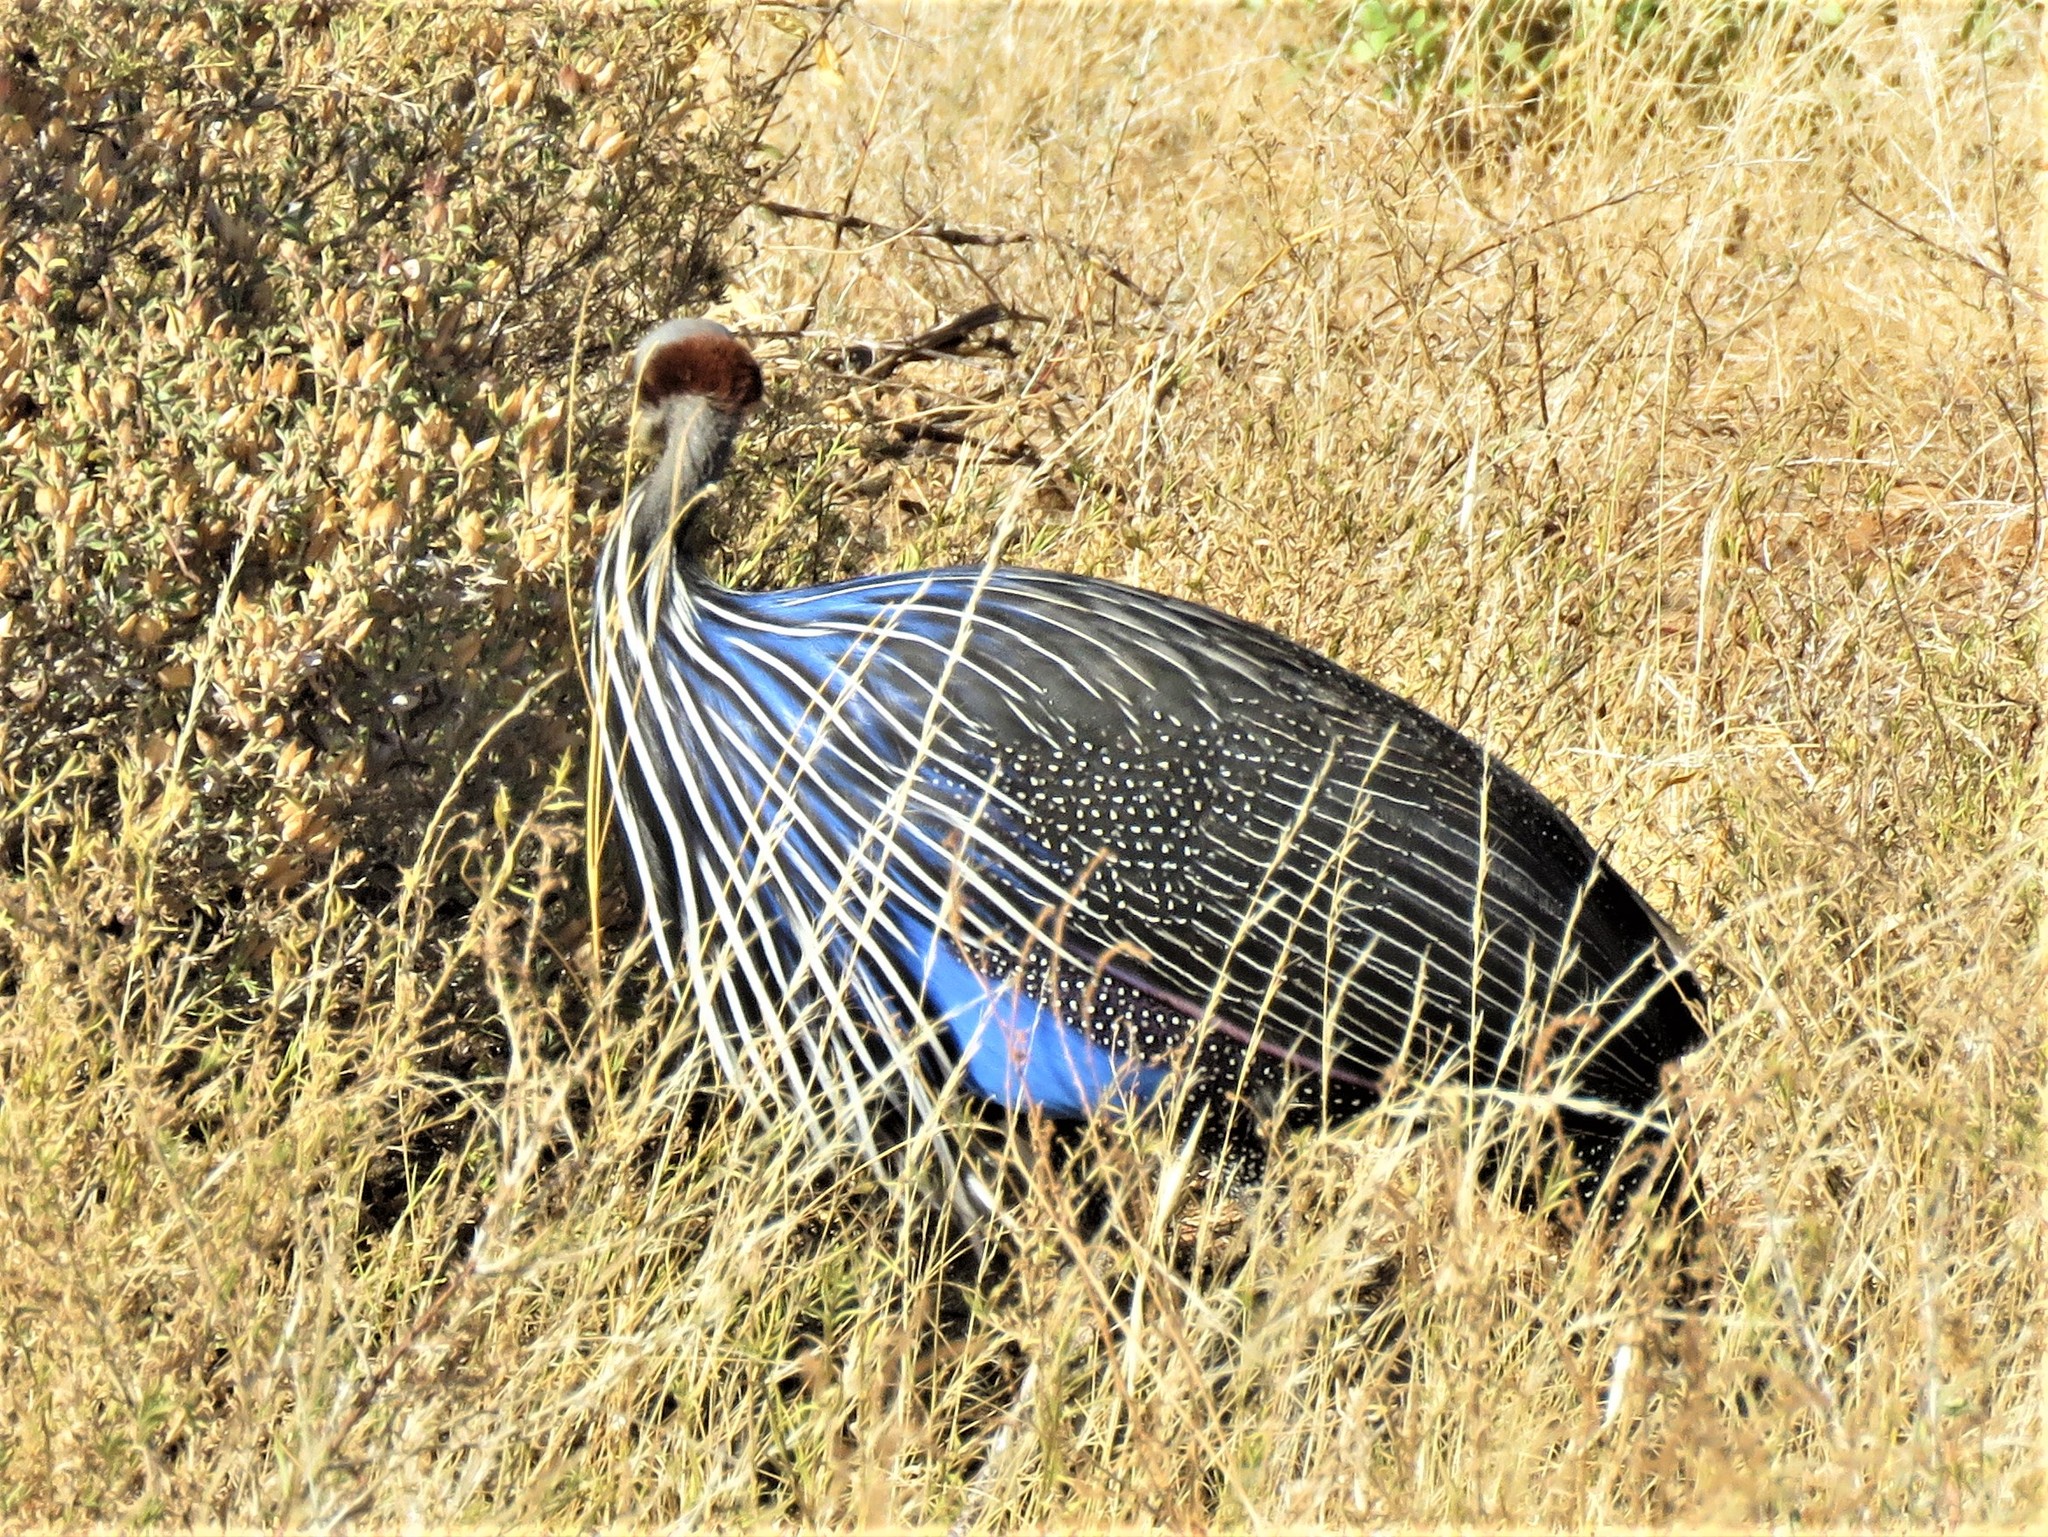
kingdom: Animalia
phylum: Chordata
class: Aves
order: Galliformes
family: Numididae
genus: Acryllium
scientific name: Acryllium vulturinum
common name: Vulturine guineafowl
